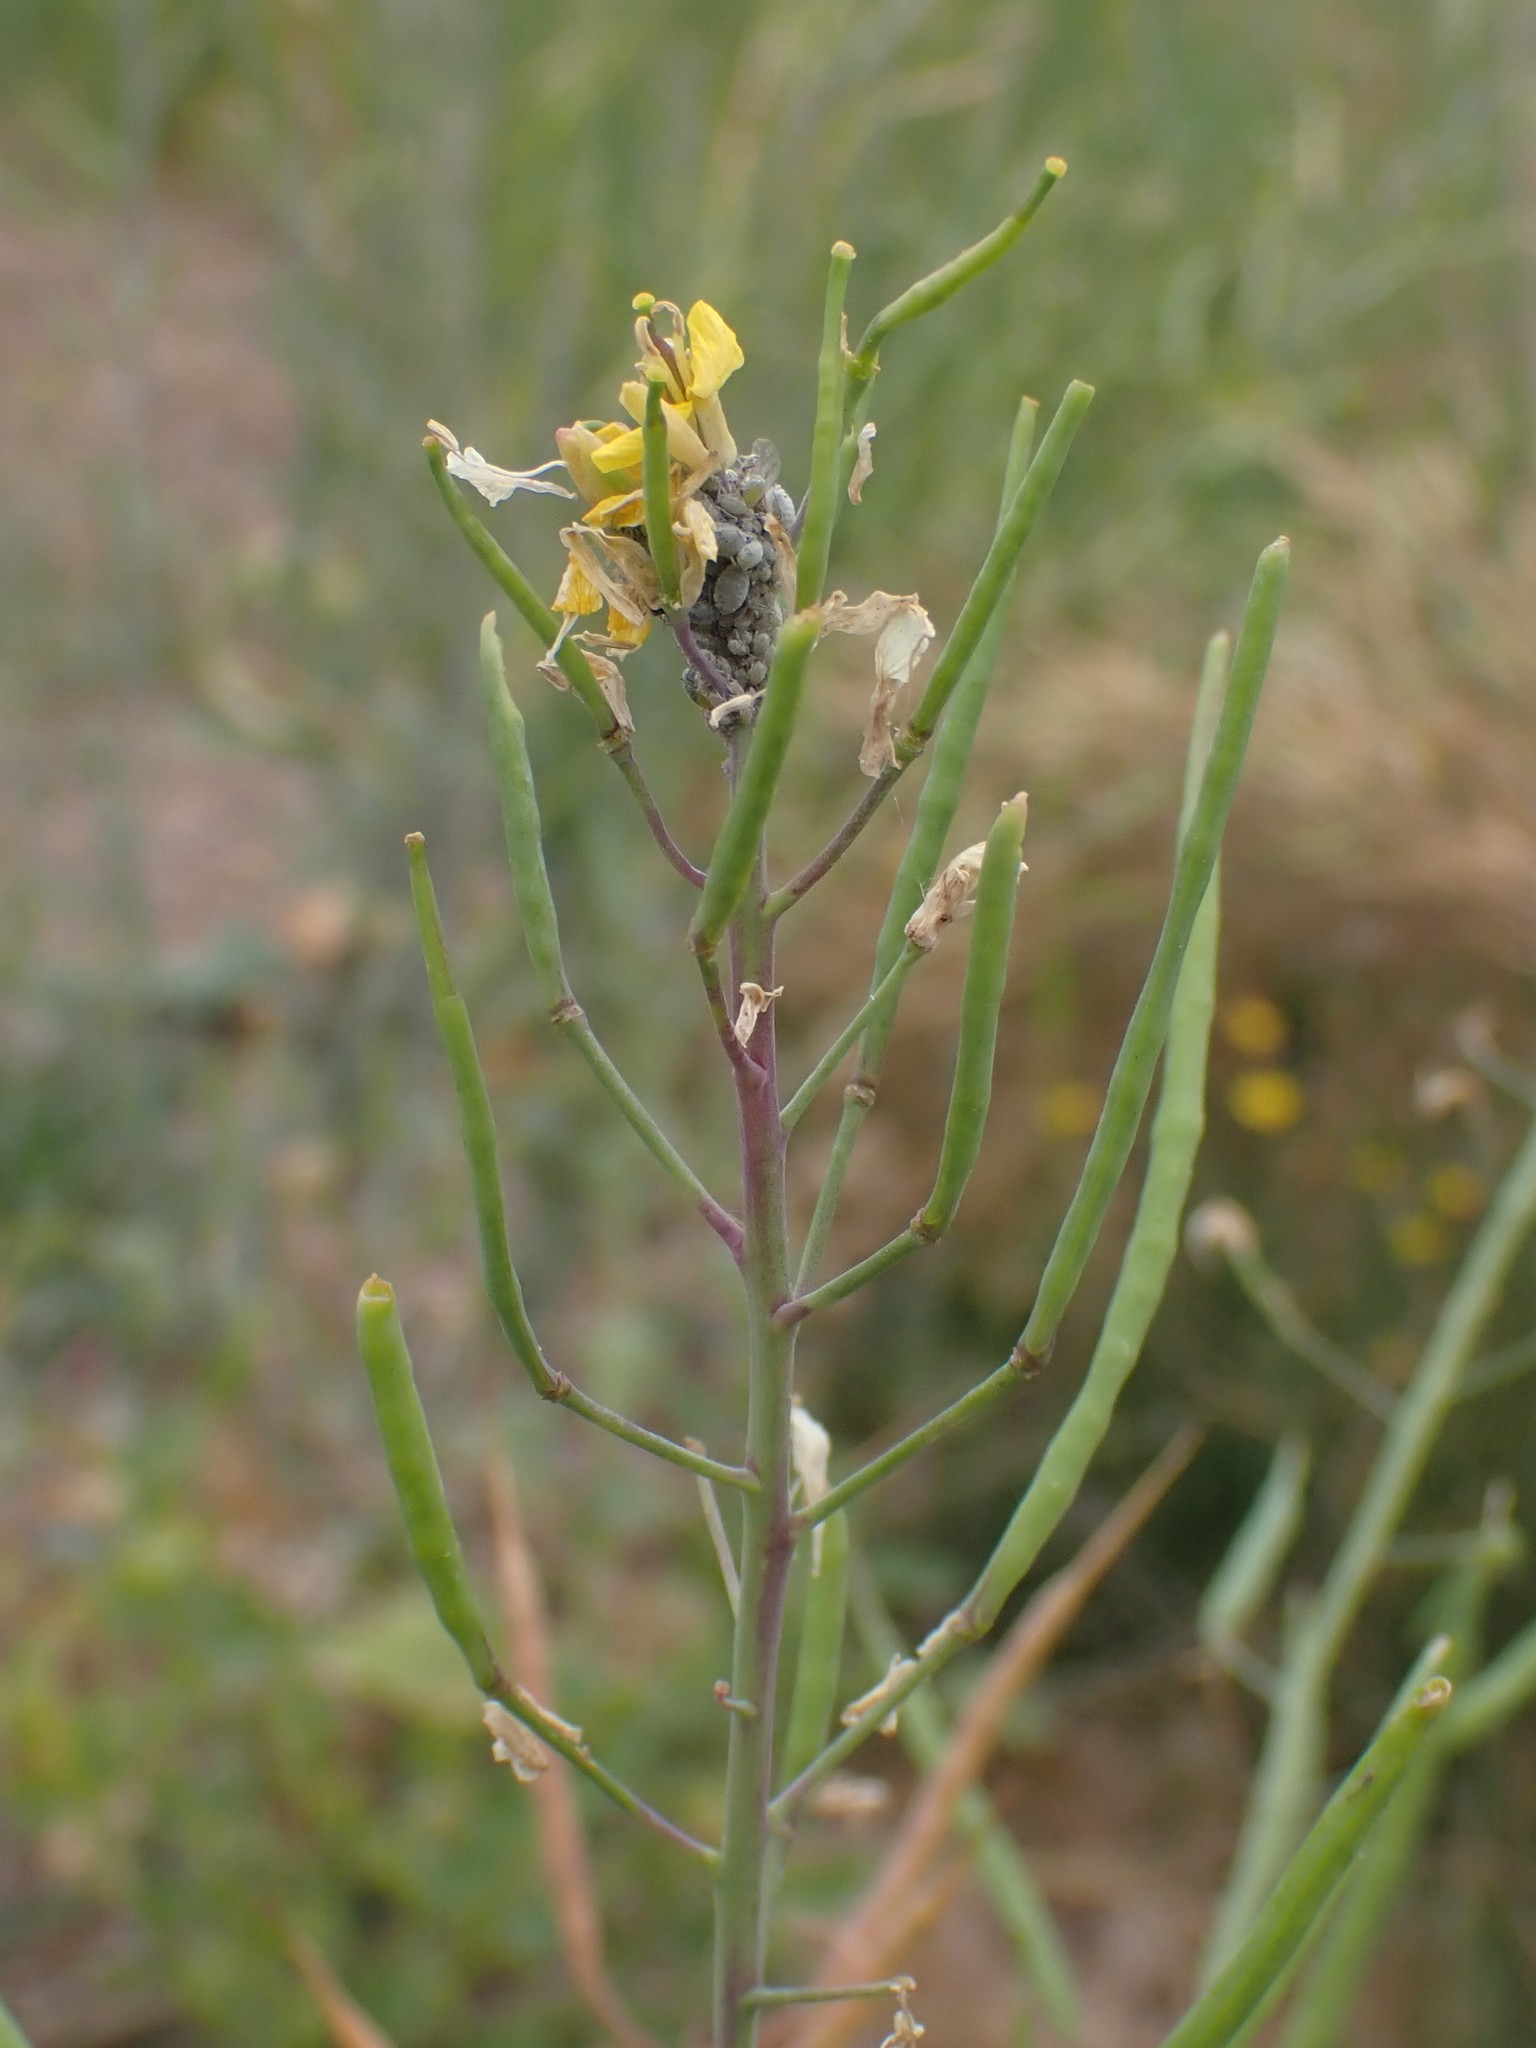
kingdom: Plantae
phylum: Tracheophyta
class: Magnoliopsida
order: Brassicales
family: Brassicaceae
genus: Brassica
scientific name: Brassica rapa
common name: Field mustard
